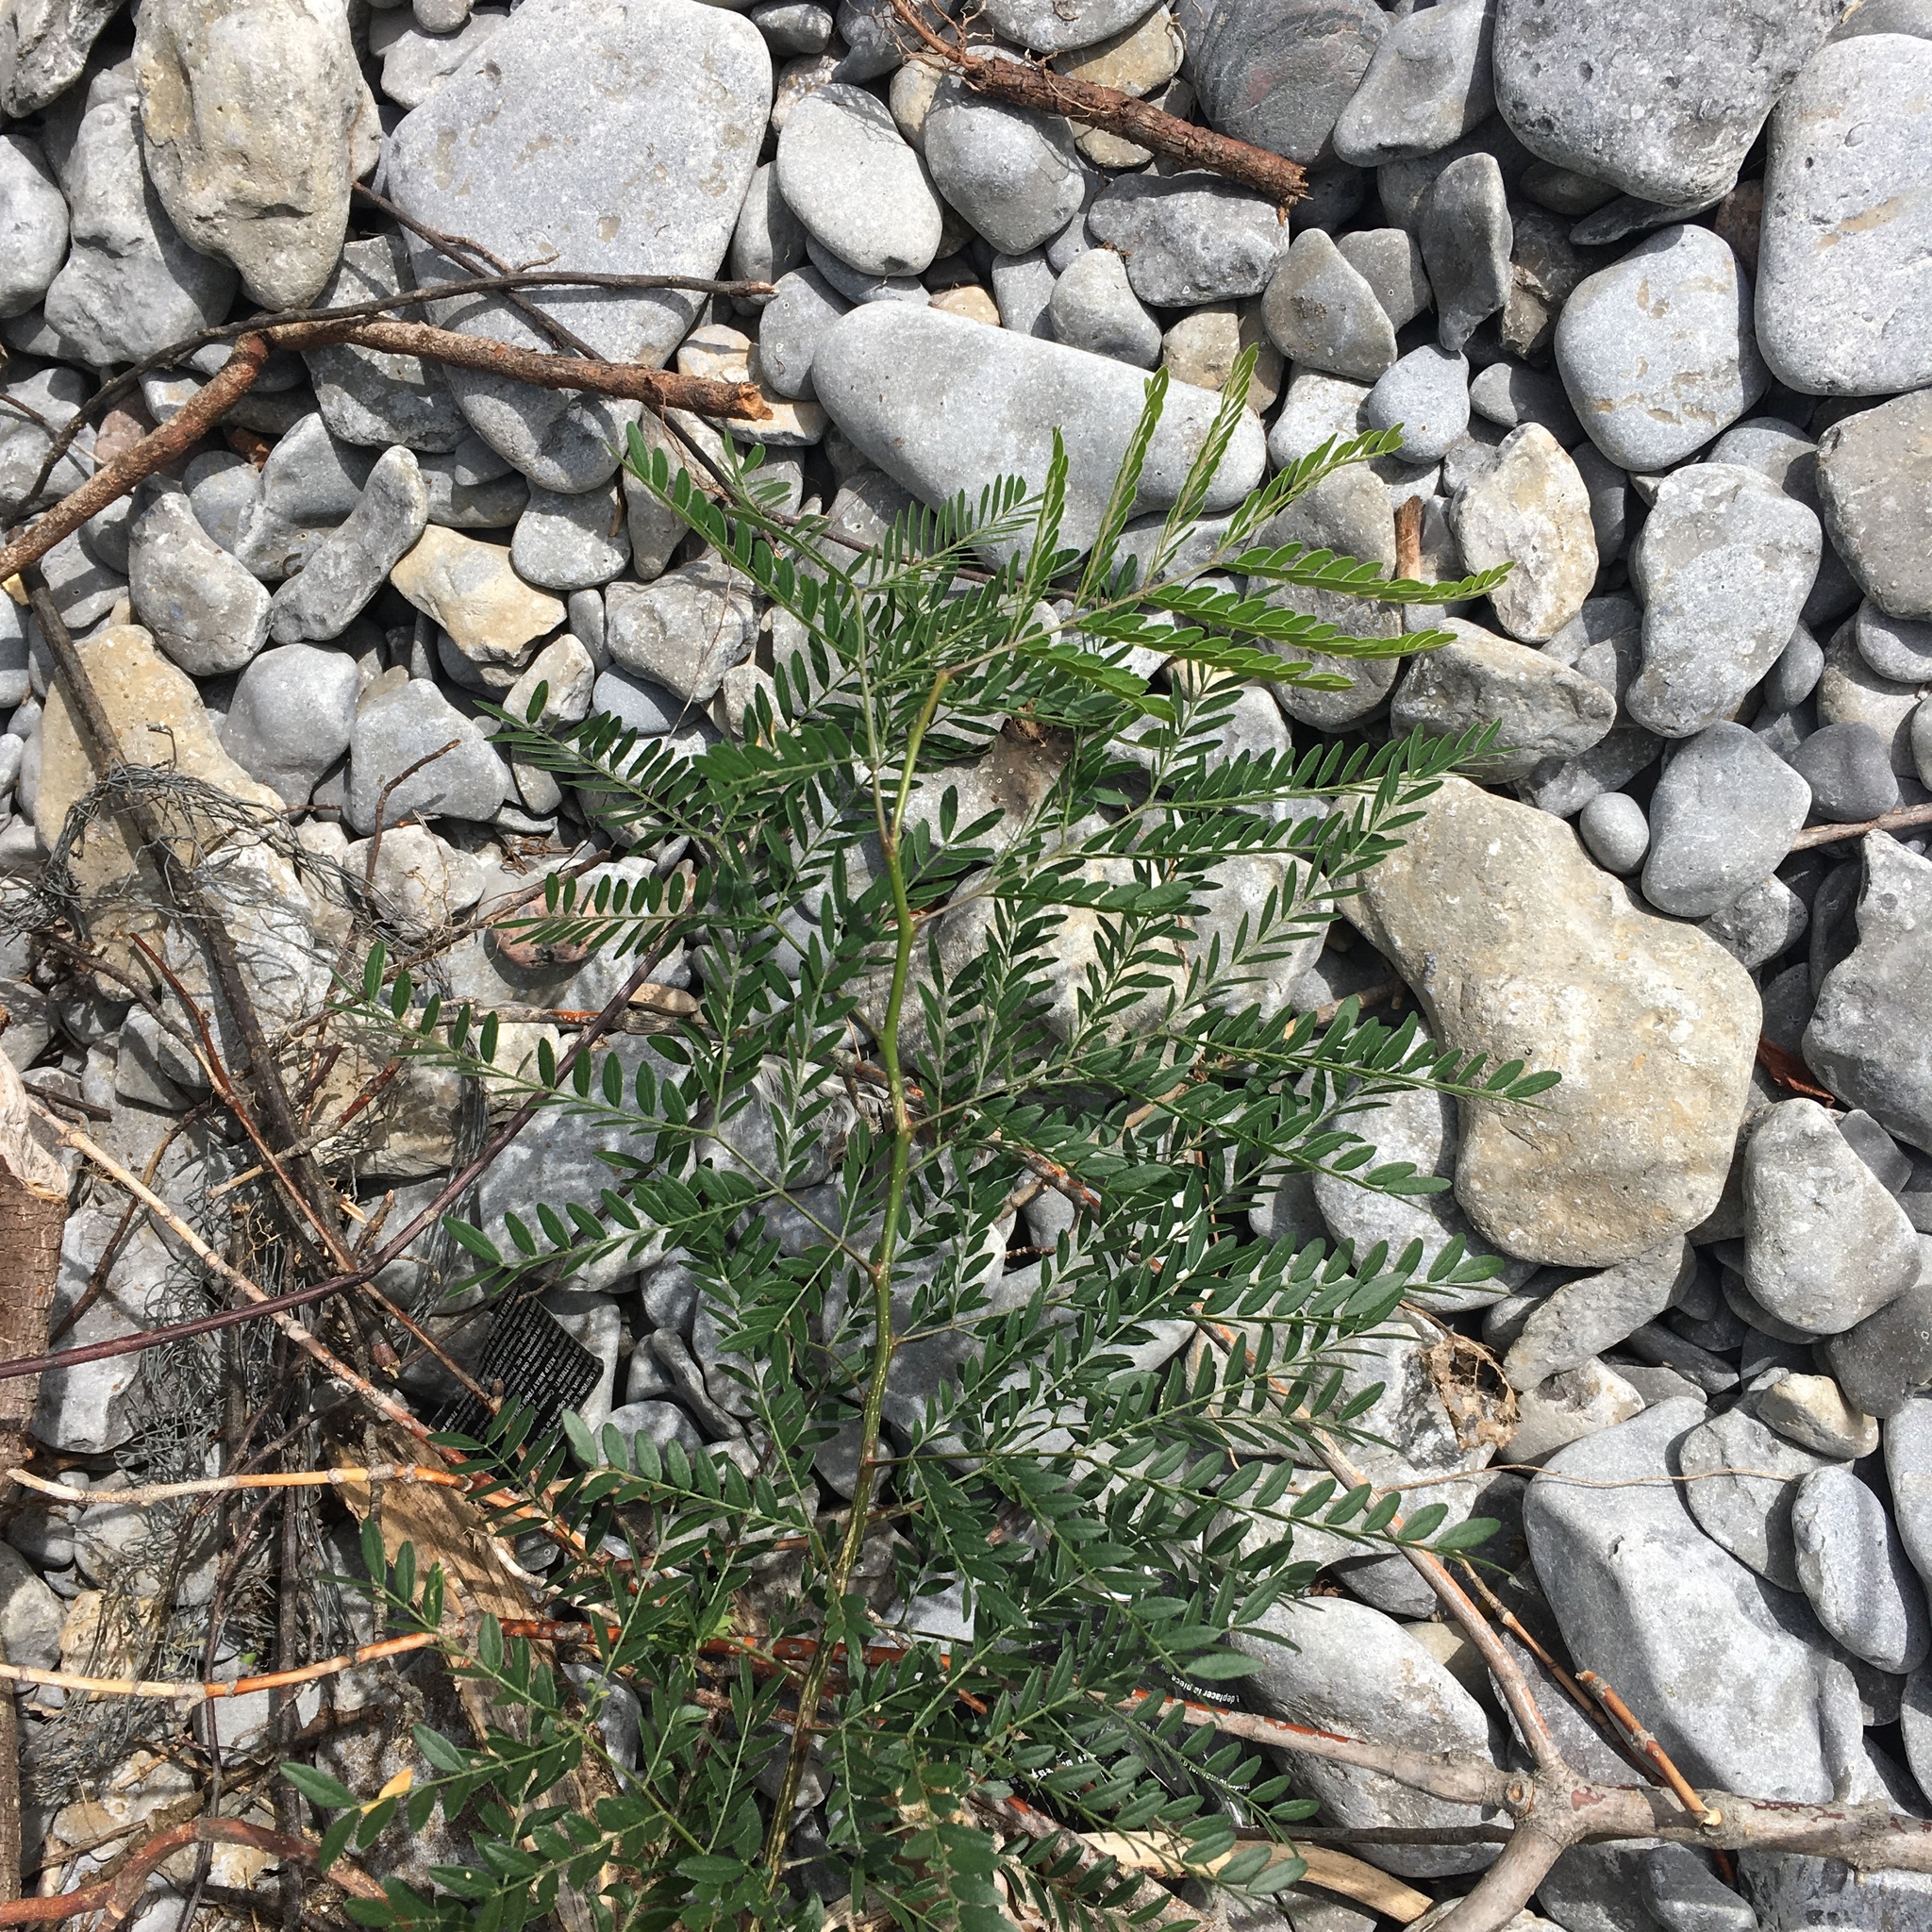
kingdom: Plantae
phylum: Tracheophyta
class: Magnoliopsida
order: Fabales
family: Fabaceae
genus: Gleditsia
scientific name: Gleditsia triacanthos
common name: Common honeylocust
